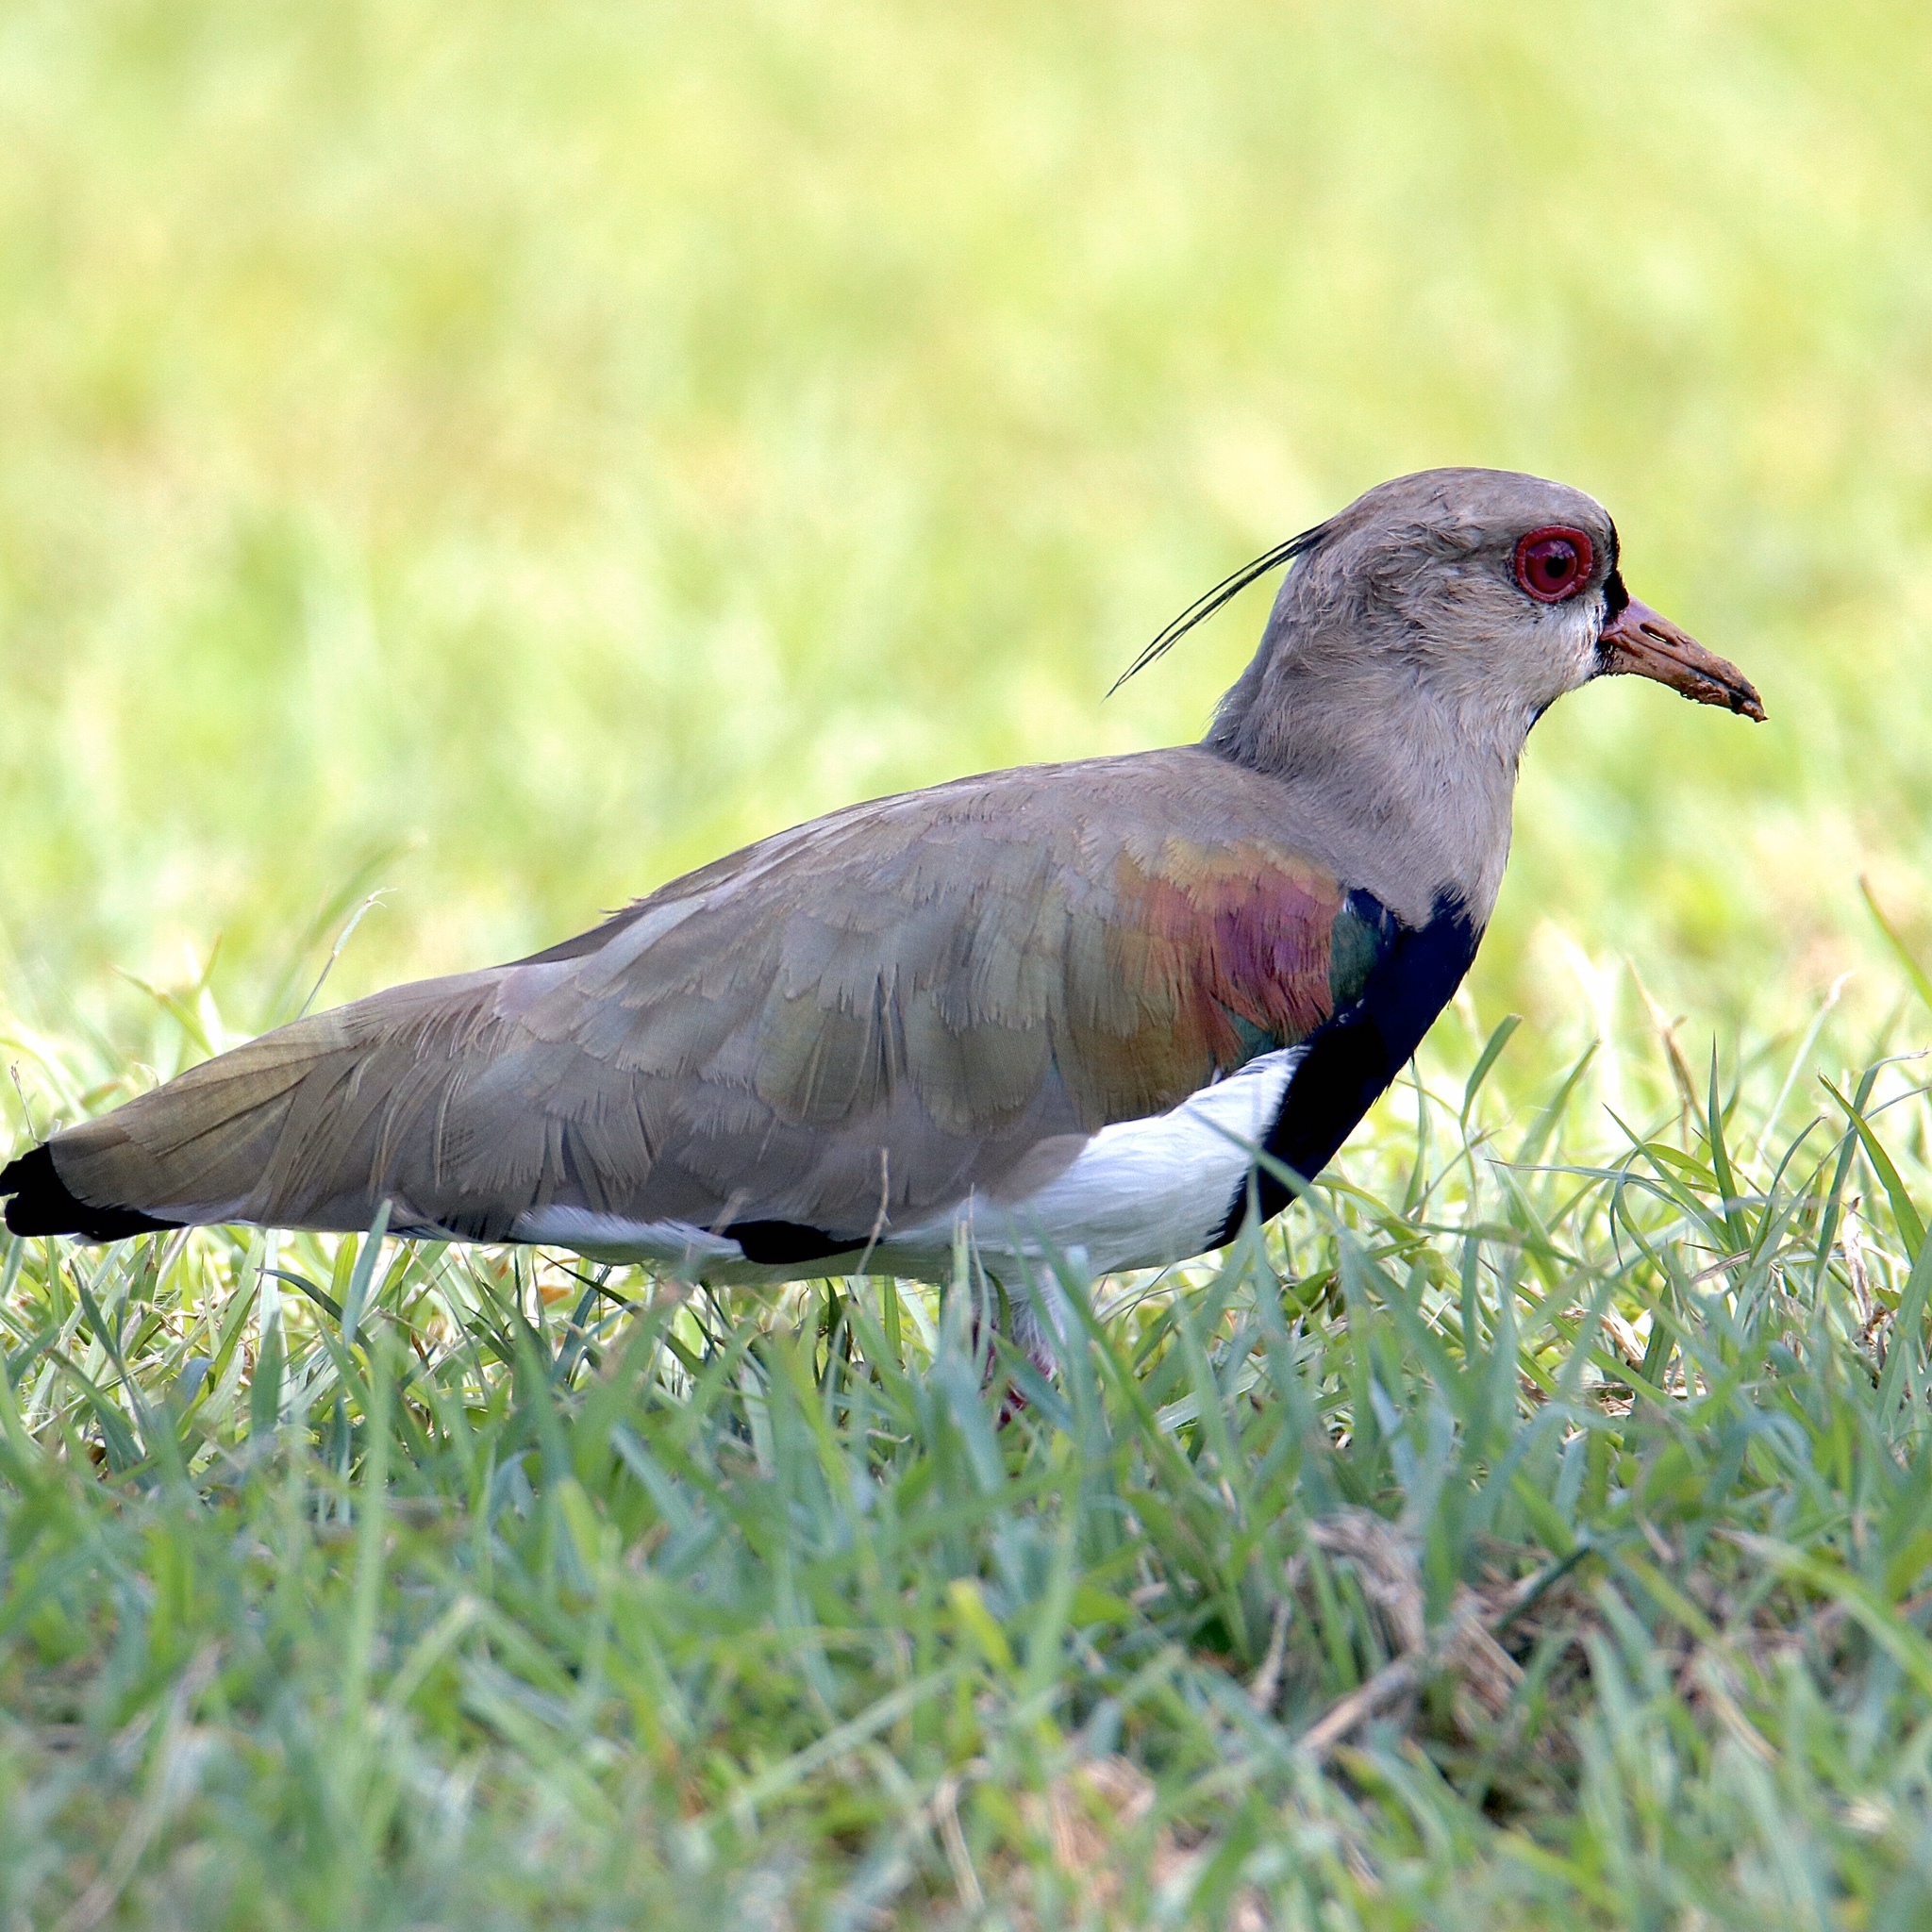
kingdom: Animalia
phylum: Chordata
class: Aves
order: Charadriiformes
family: Charadriidae
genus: Vanellus
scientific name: Vanellus chilensis
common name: Southern lapwing
